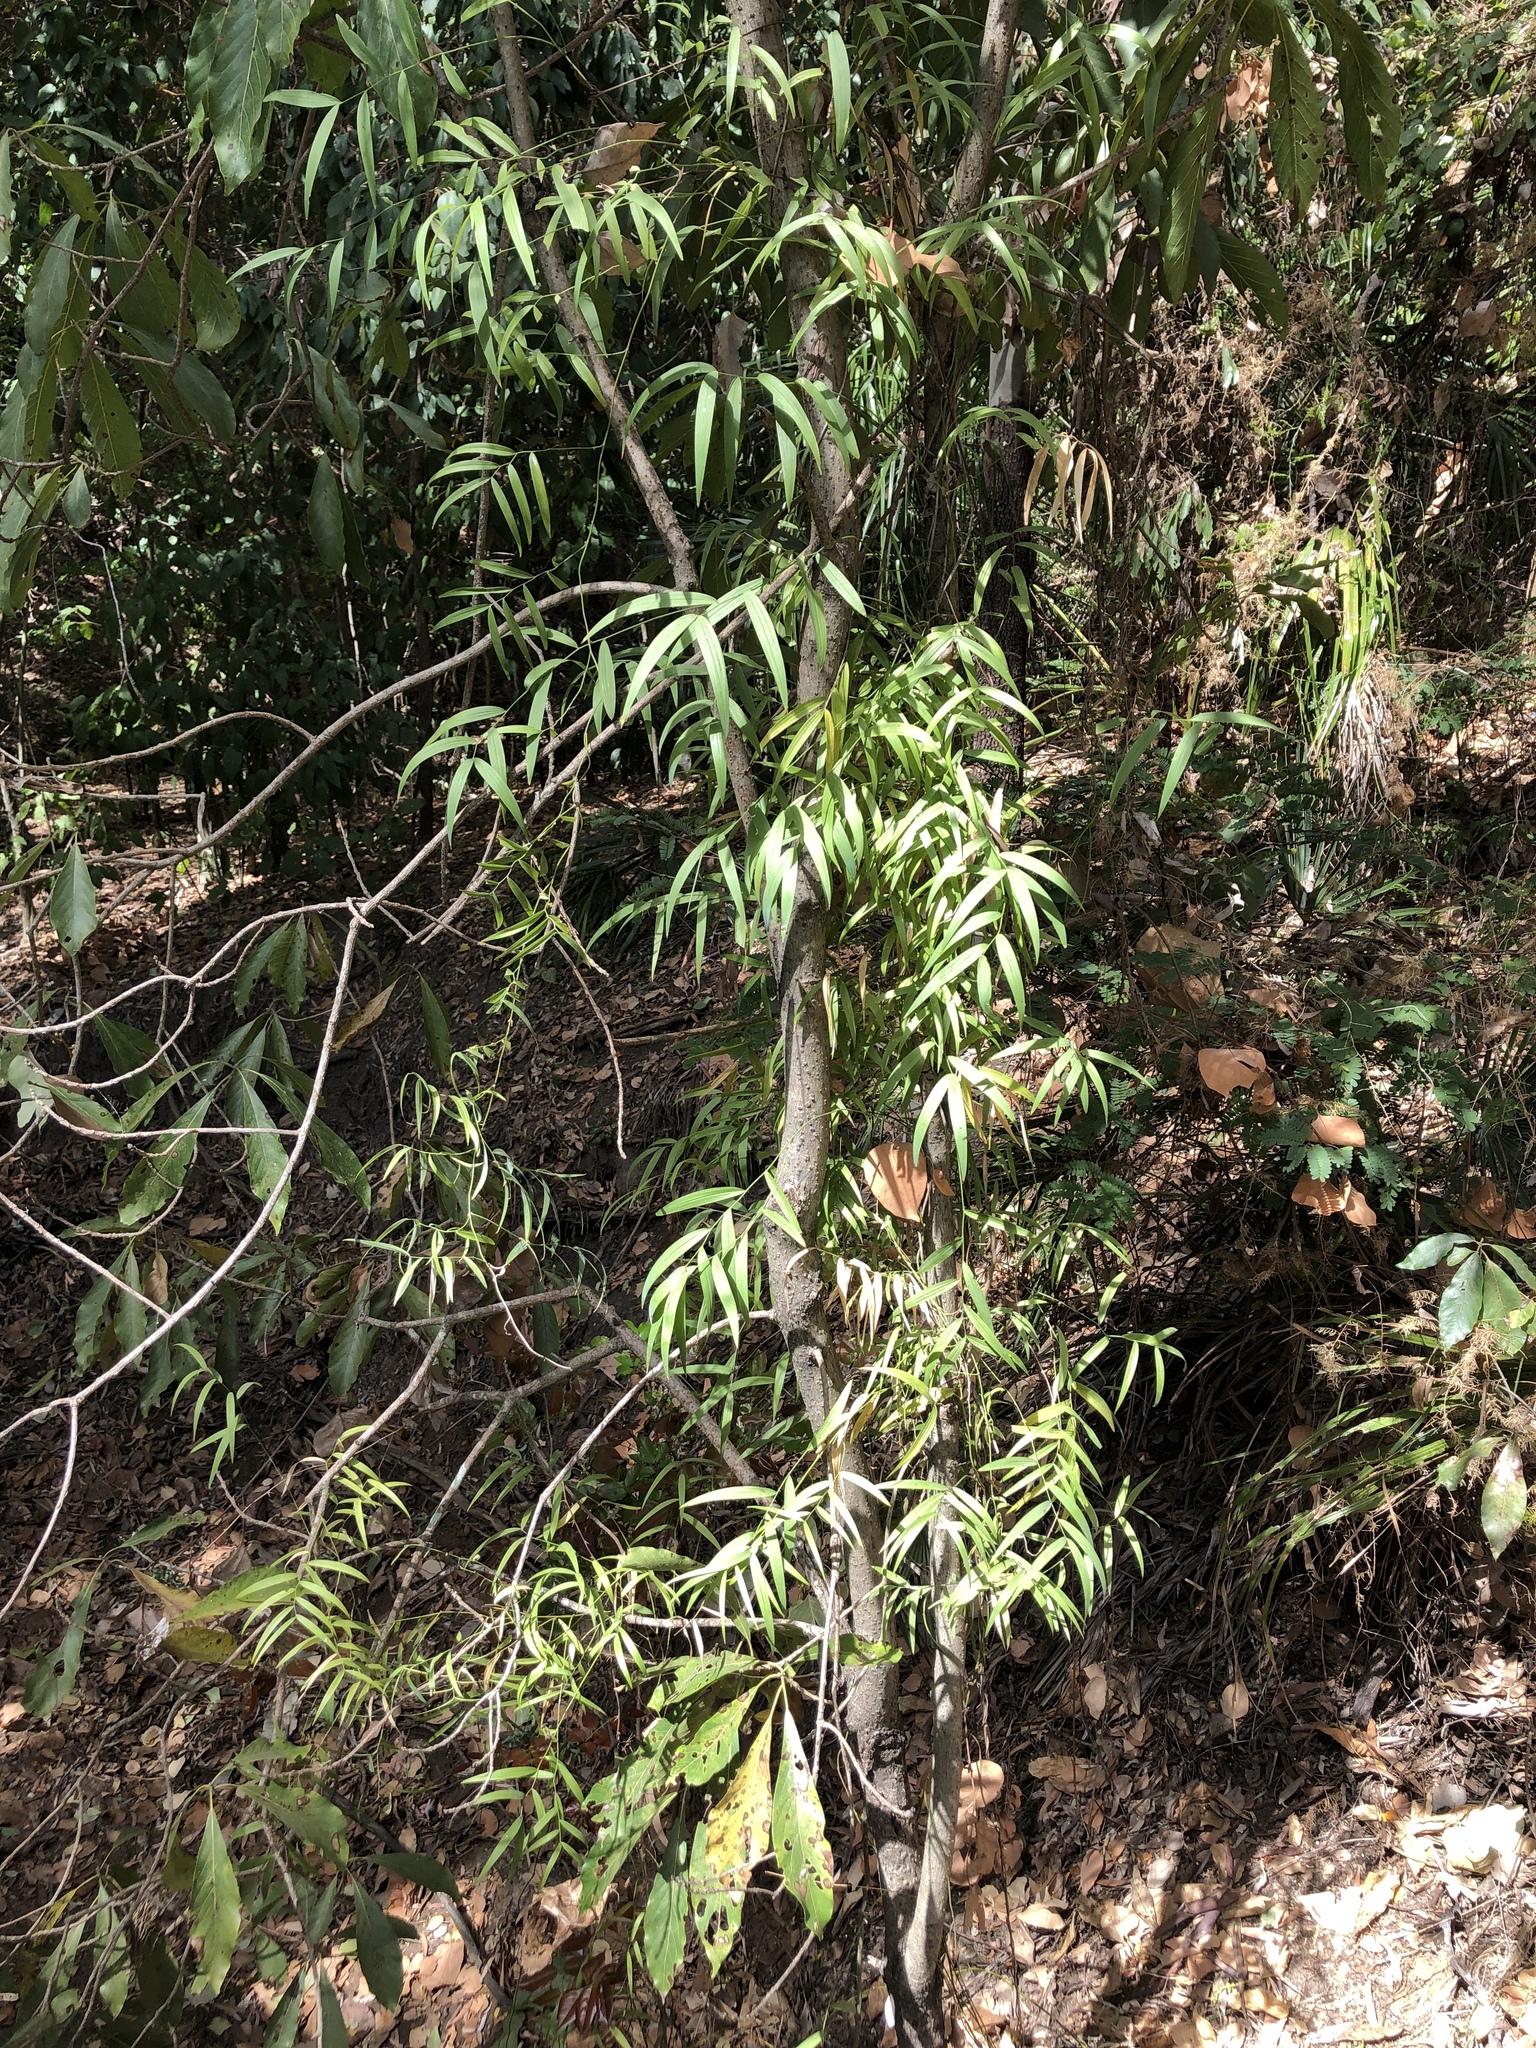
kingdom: Plantae
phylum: Tracheophyta
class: Liliopsida
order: Asparagales
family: Asparagaceae
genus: Eustrephus
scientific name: Eustrephus latifolius
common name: Orangevine
